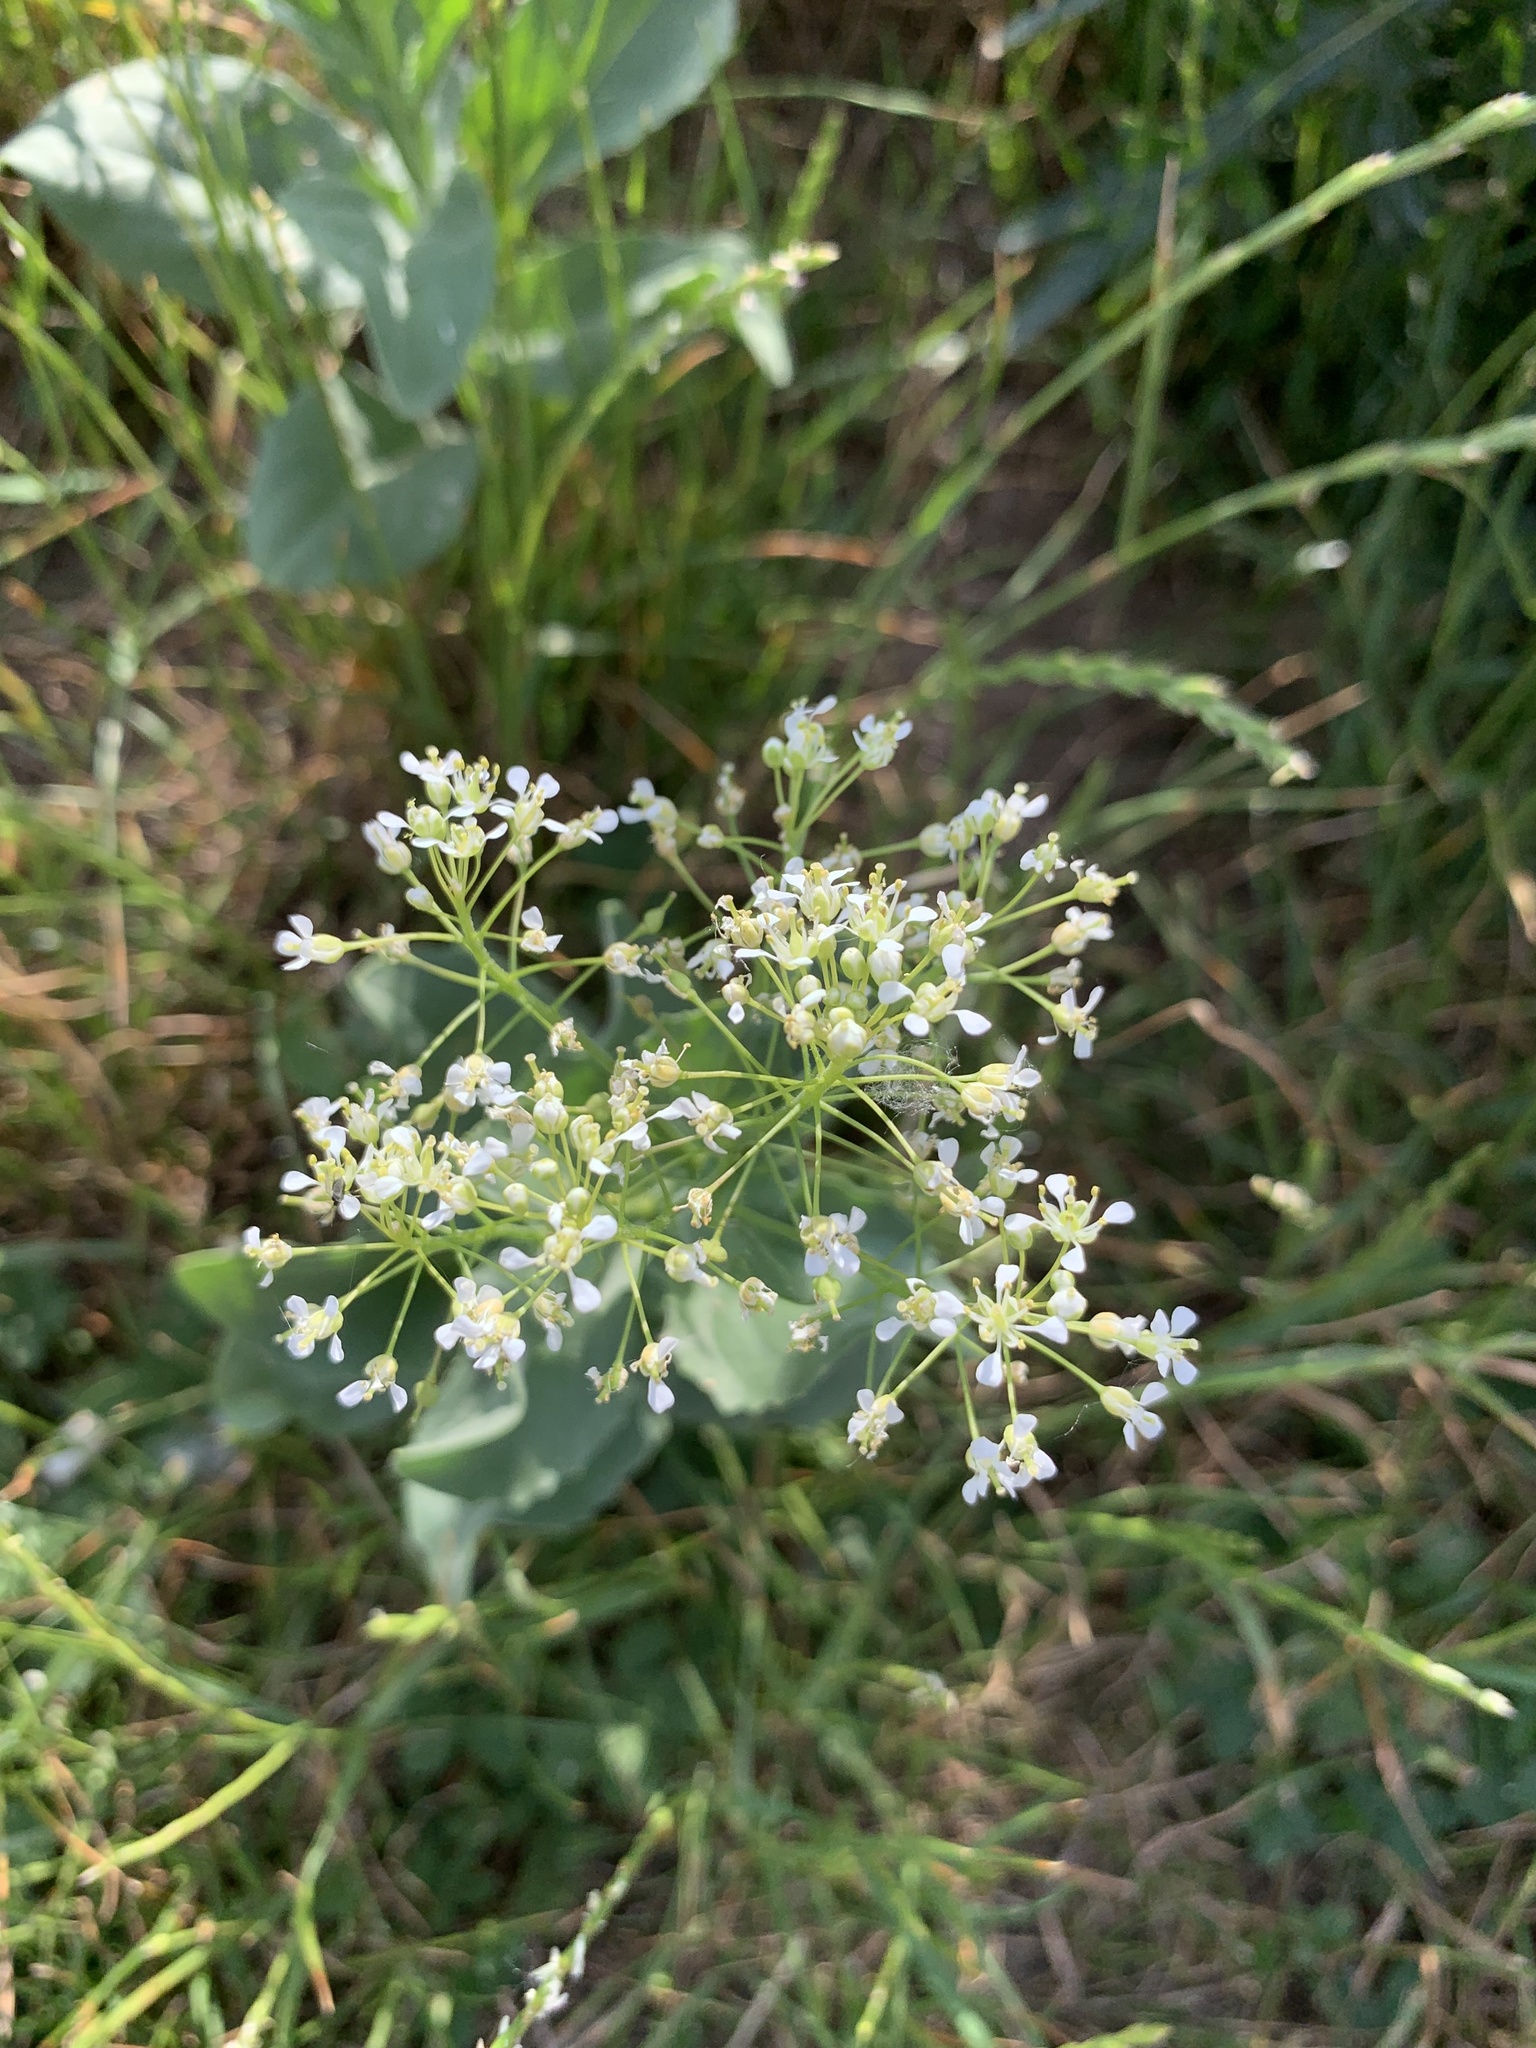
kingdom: Plantae
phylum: Tracheophyta
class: Magnoliopsida
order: Brassicales
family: Brassicaceae
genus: Lepidium
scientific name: Lepidium draba
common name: Hoary cress
